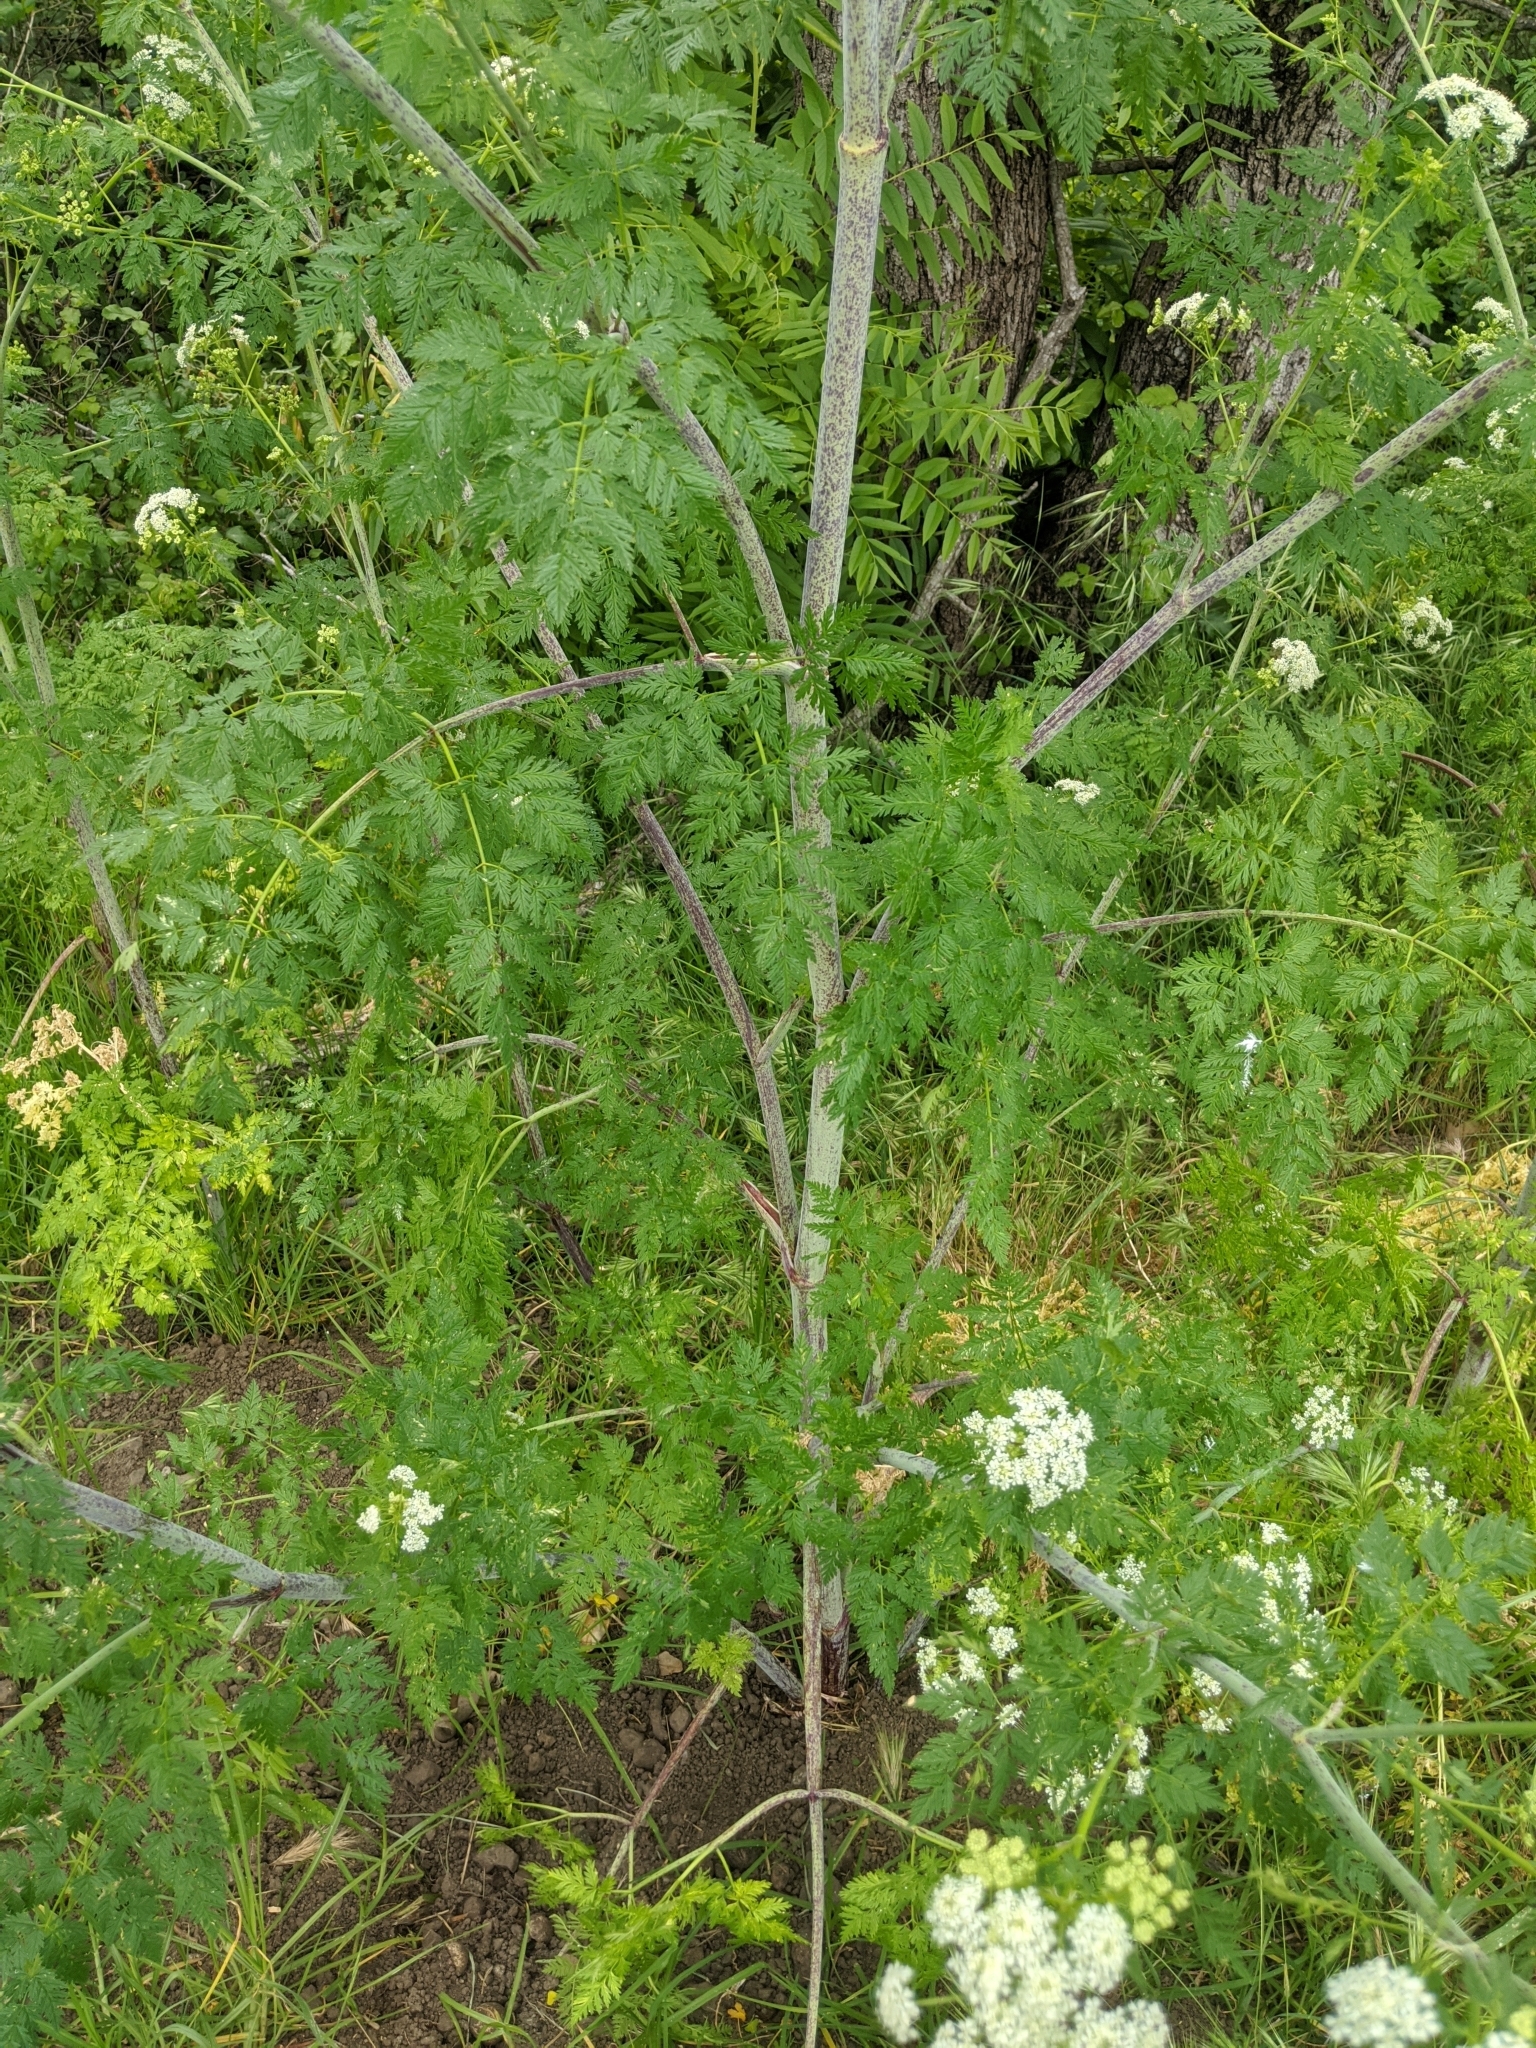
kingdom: Plantae
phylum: Tracheophyta
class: Magnoliopsida
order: Apiales
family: Apiaceae
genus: Conium
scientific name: Conium maculatum
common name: Hemlock
